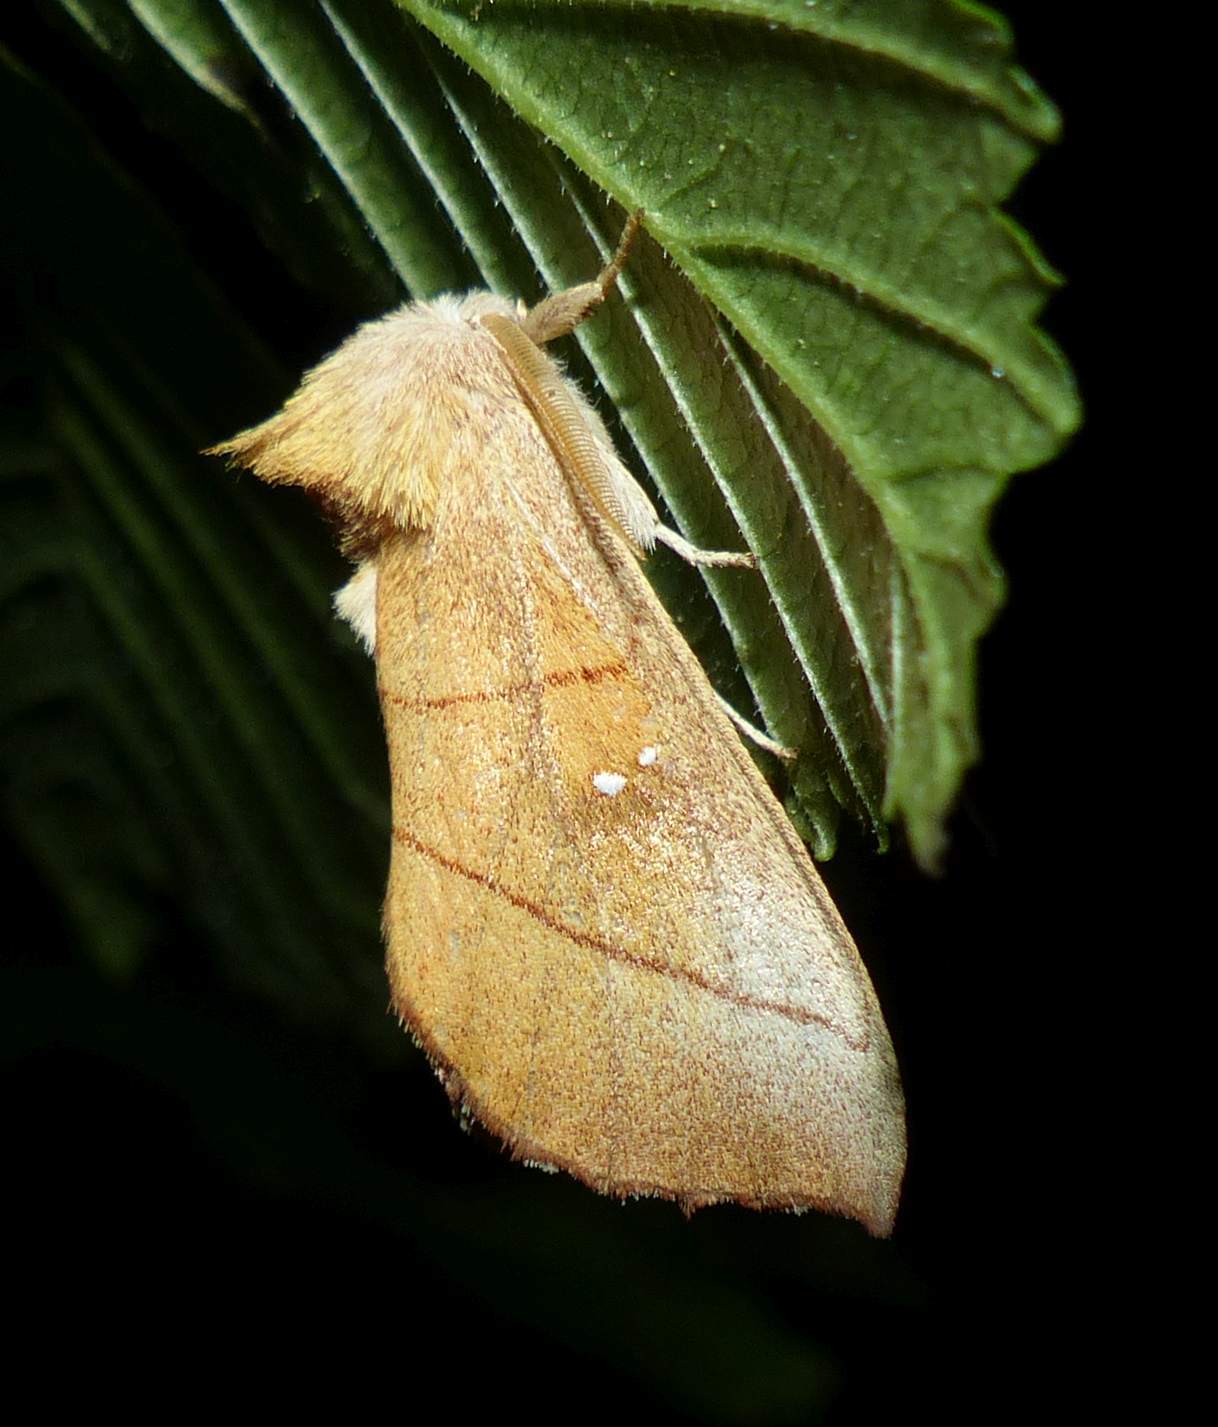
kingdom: Animalia
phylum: Arthropoda
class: Insecta
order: Lepidoptera
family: Notodontidae
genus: Nadata
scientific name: Nadata gibbosa
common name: White-dotted prominent
